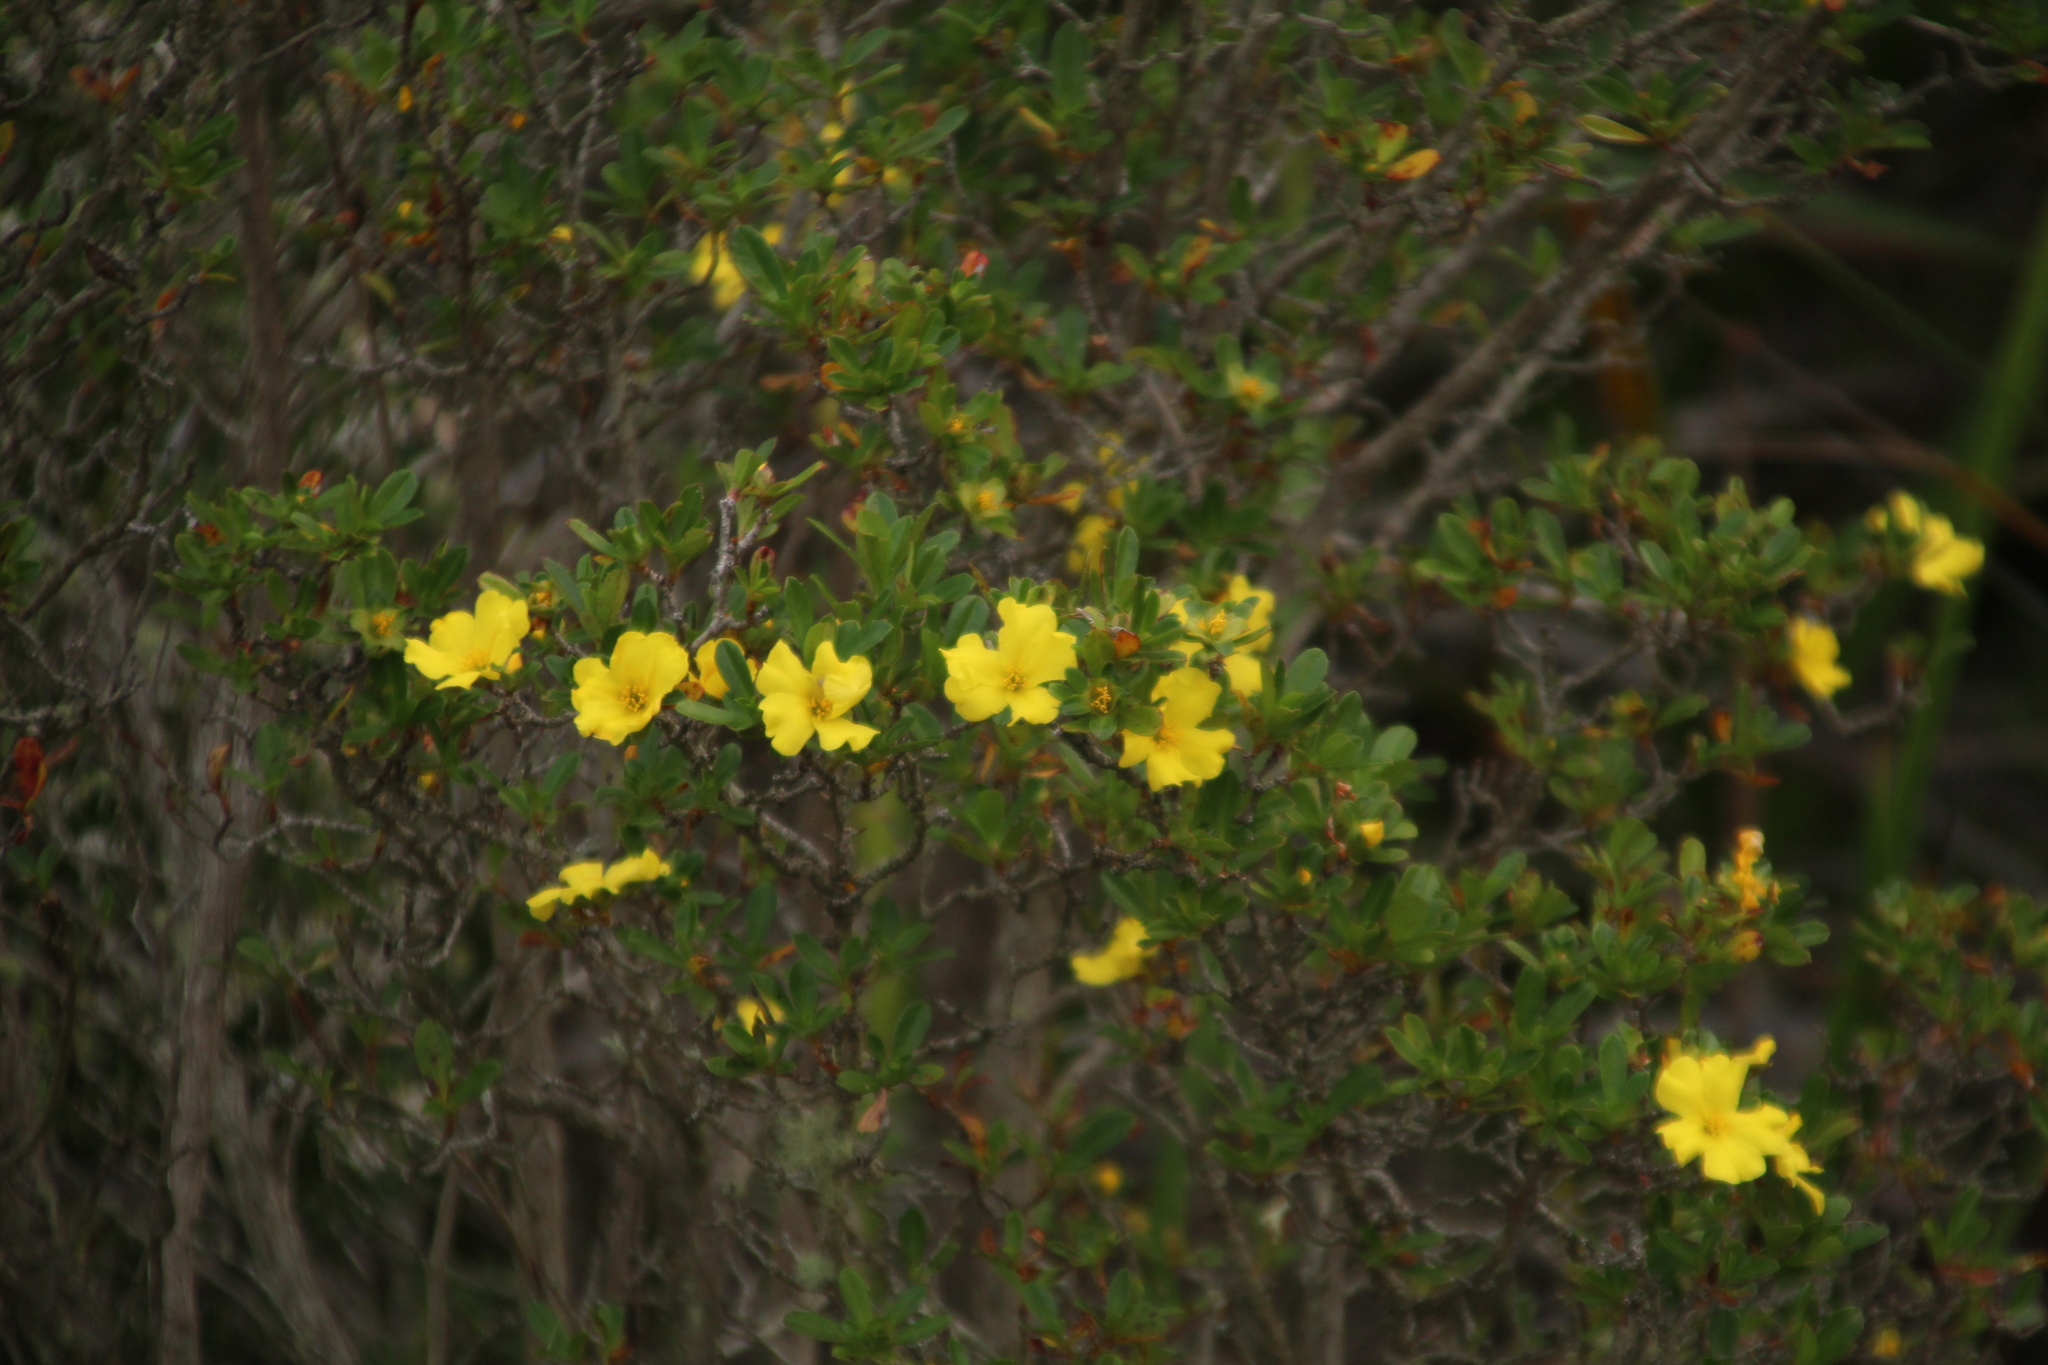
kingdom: Plantae
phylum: Tracheophyta
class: Magnoliopsida
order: Dilleniales
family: Dilleniaceae
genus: Hibbertia
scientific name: Hibbertia cuneiformis
